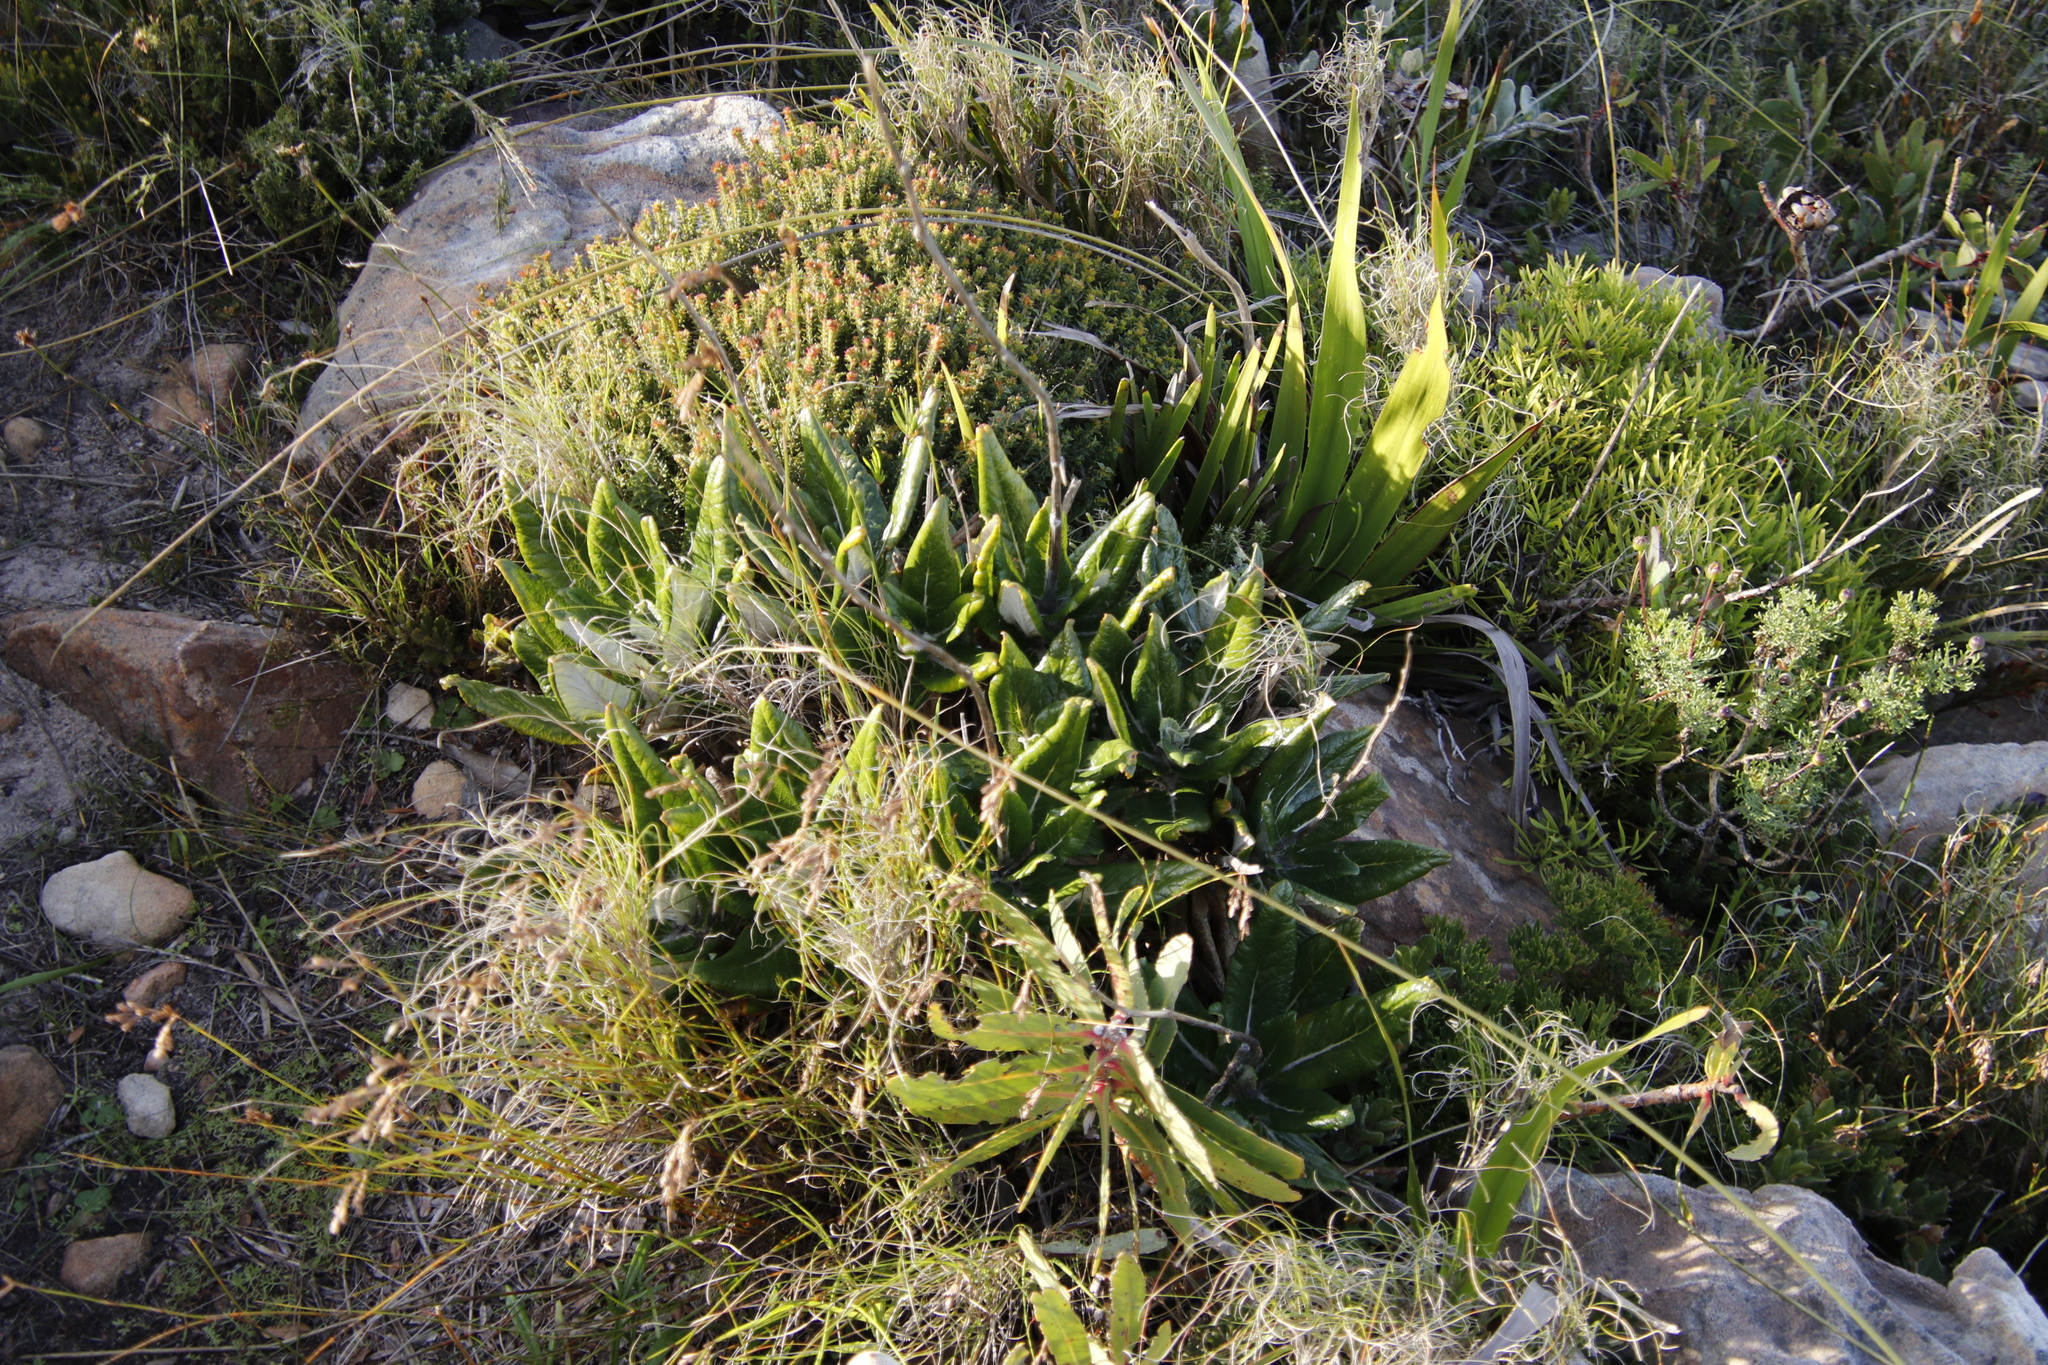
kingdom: Plantae
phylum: Tracheophyta
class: Magnoliopsida
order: Apiales
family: Apiaceae
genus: Hermas
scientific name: Hermas villosa
